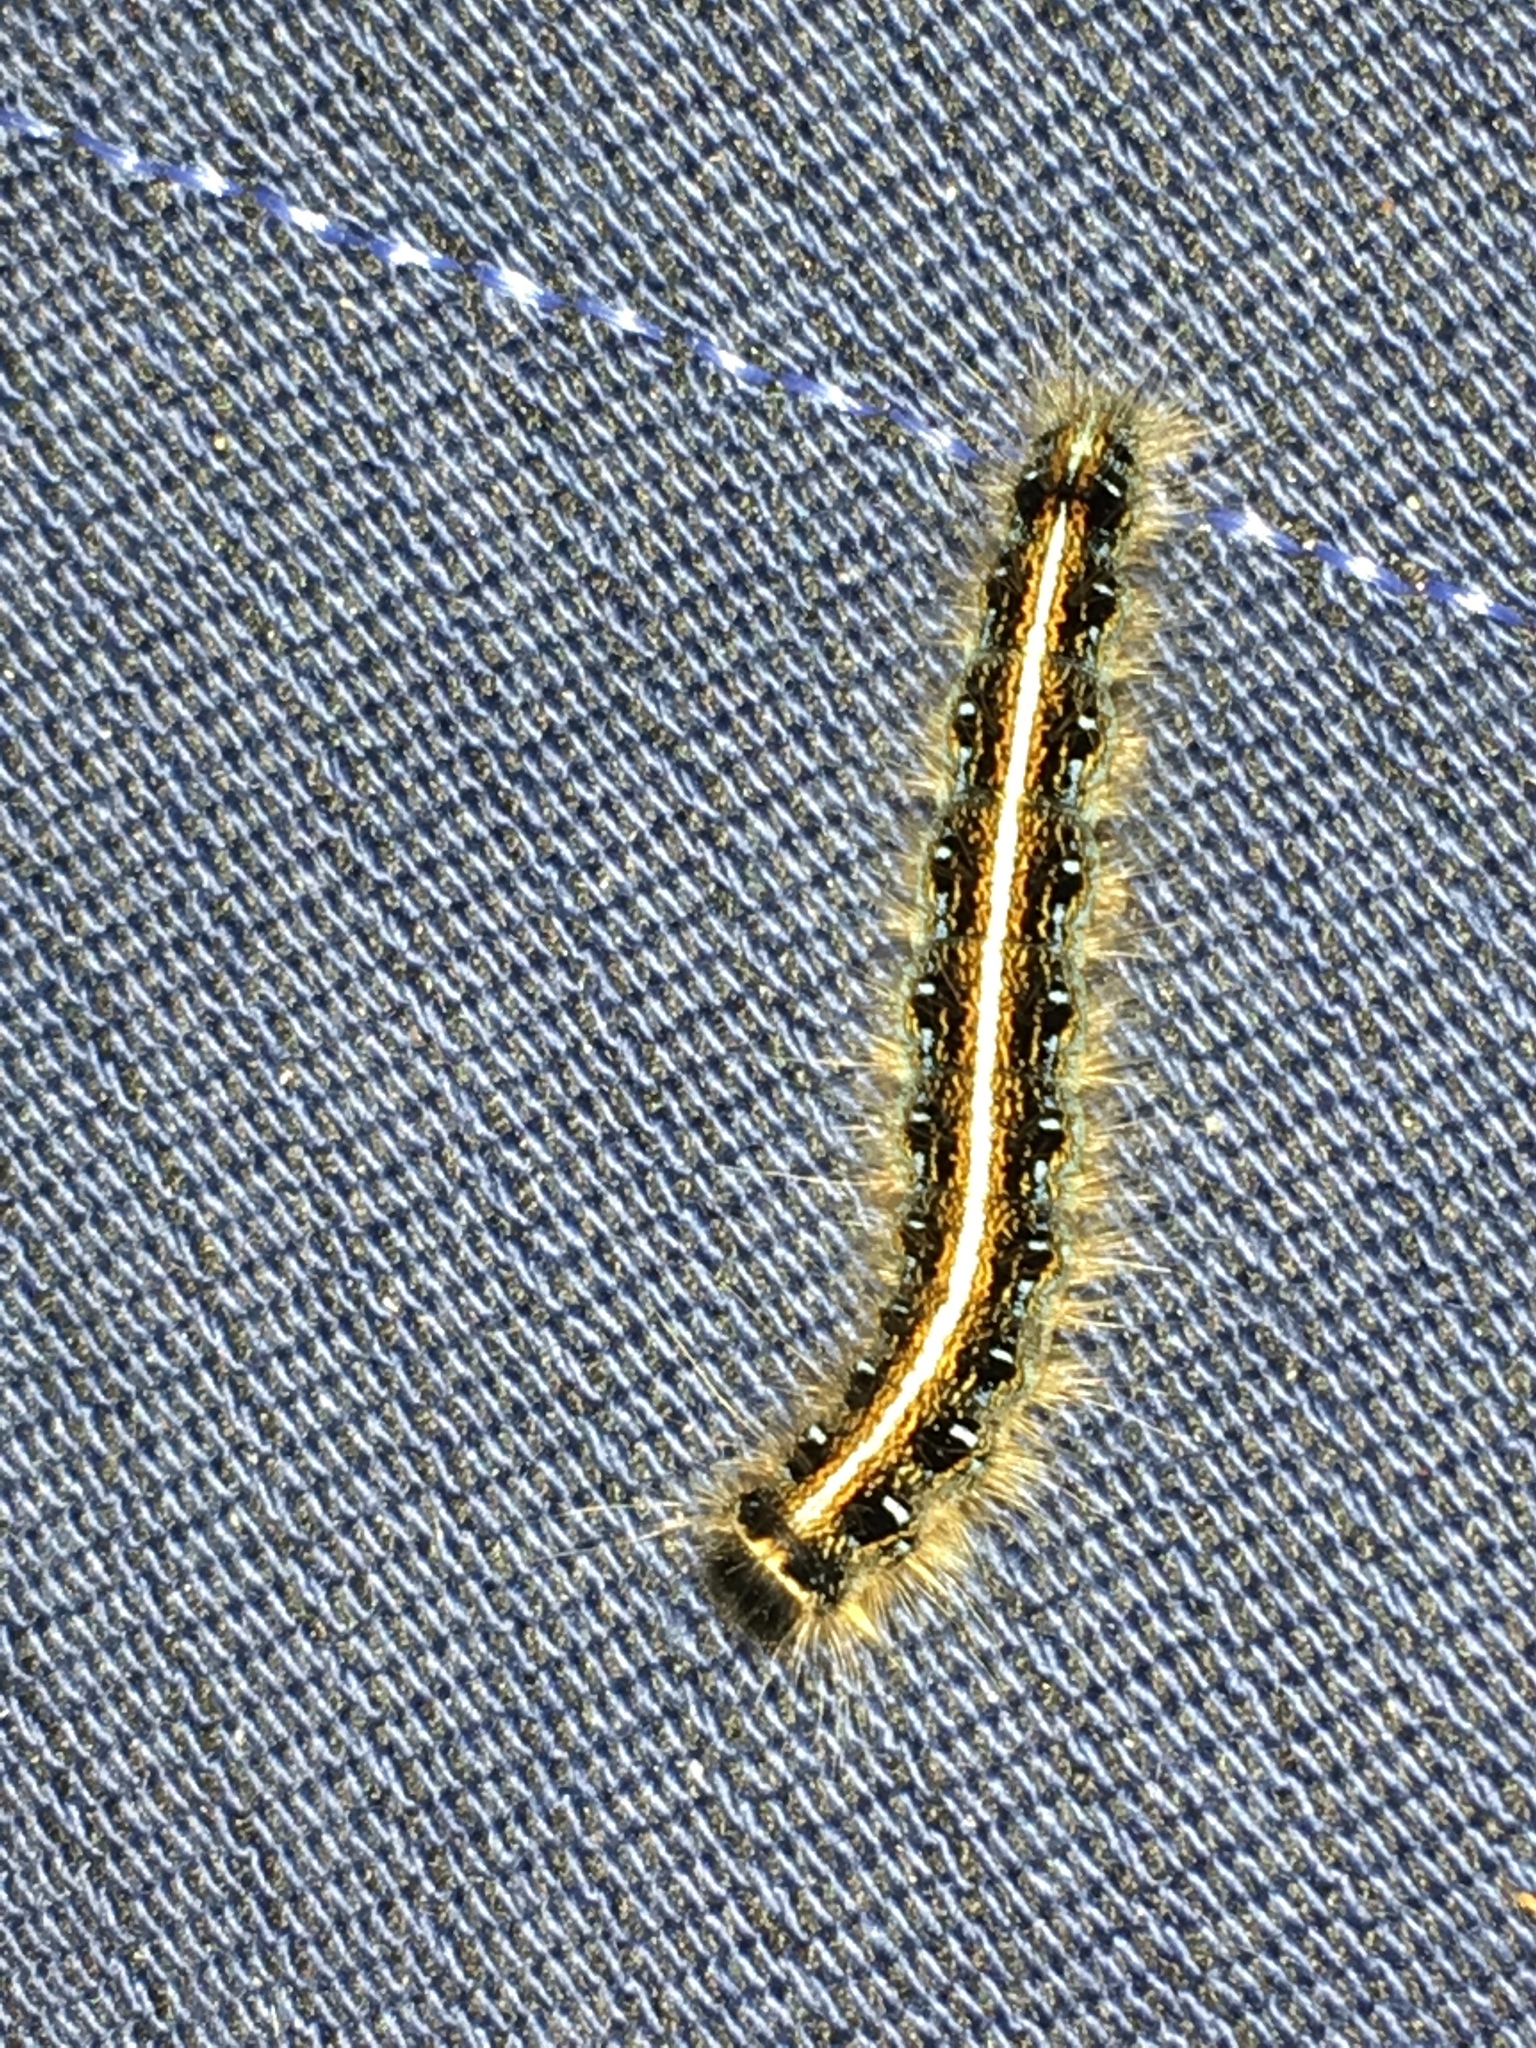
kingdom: Animalia
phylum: Arthropoda
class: Insecta
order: Lepidoptera
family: Lasiocampidae
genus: Malacosoma
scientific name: Malacosoma americana
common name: Eastern tent caterpillar moth
